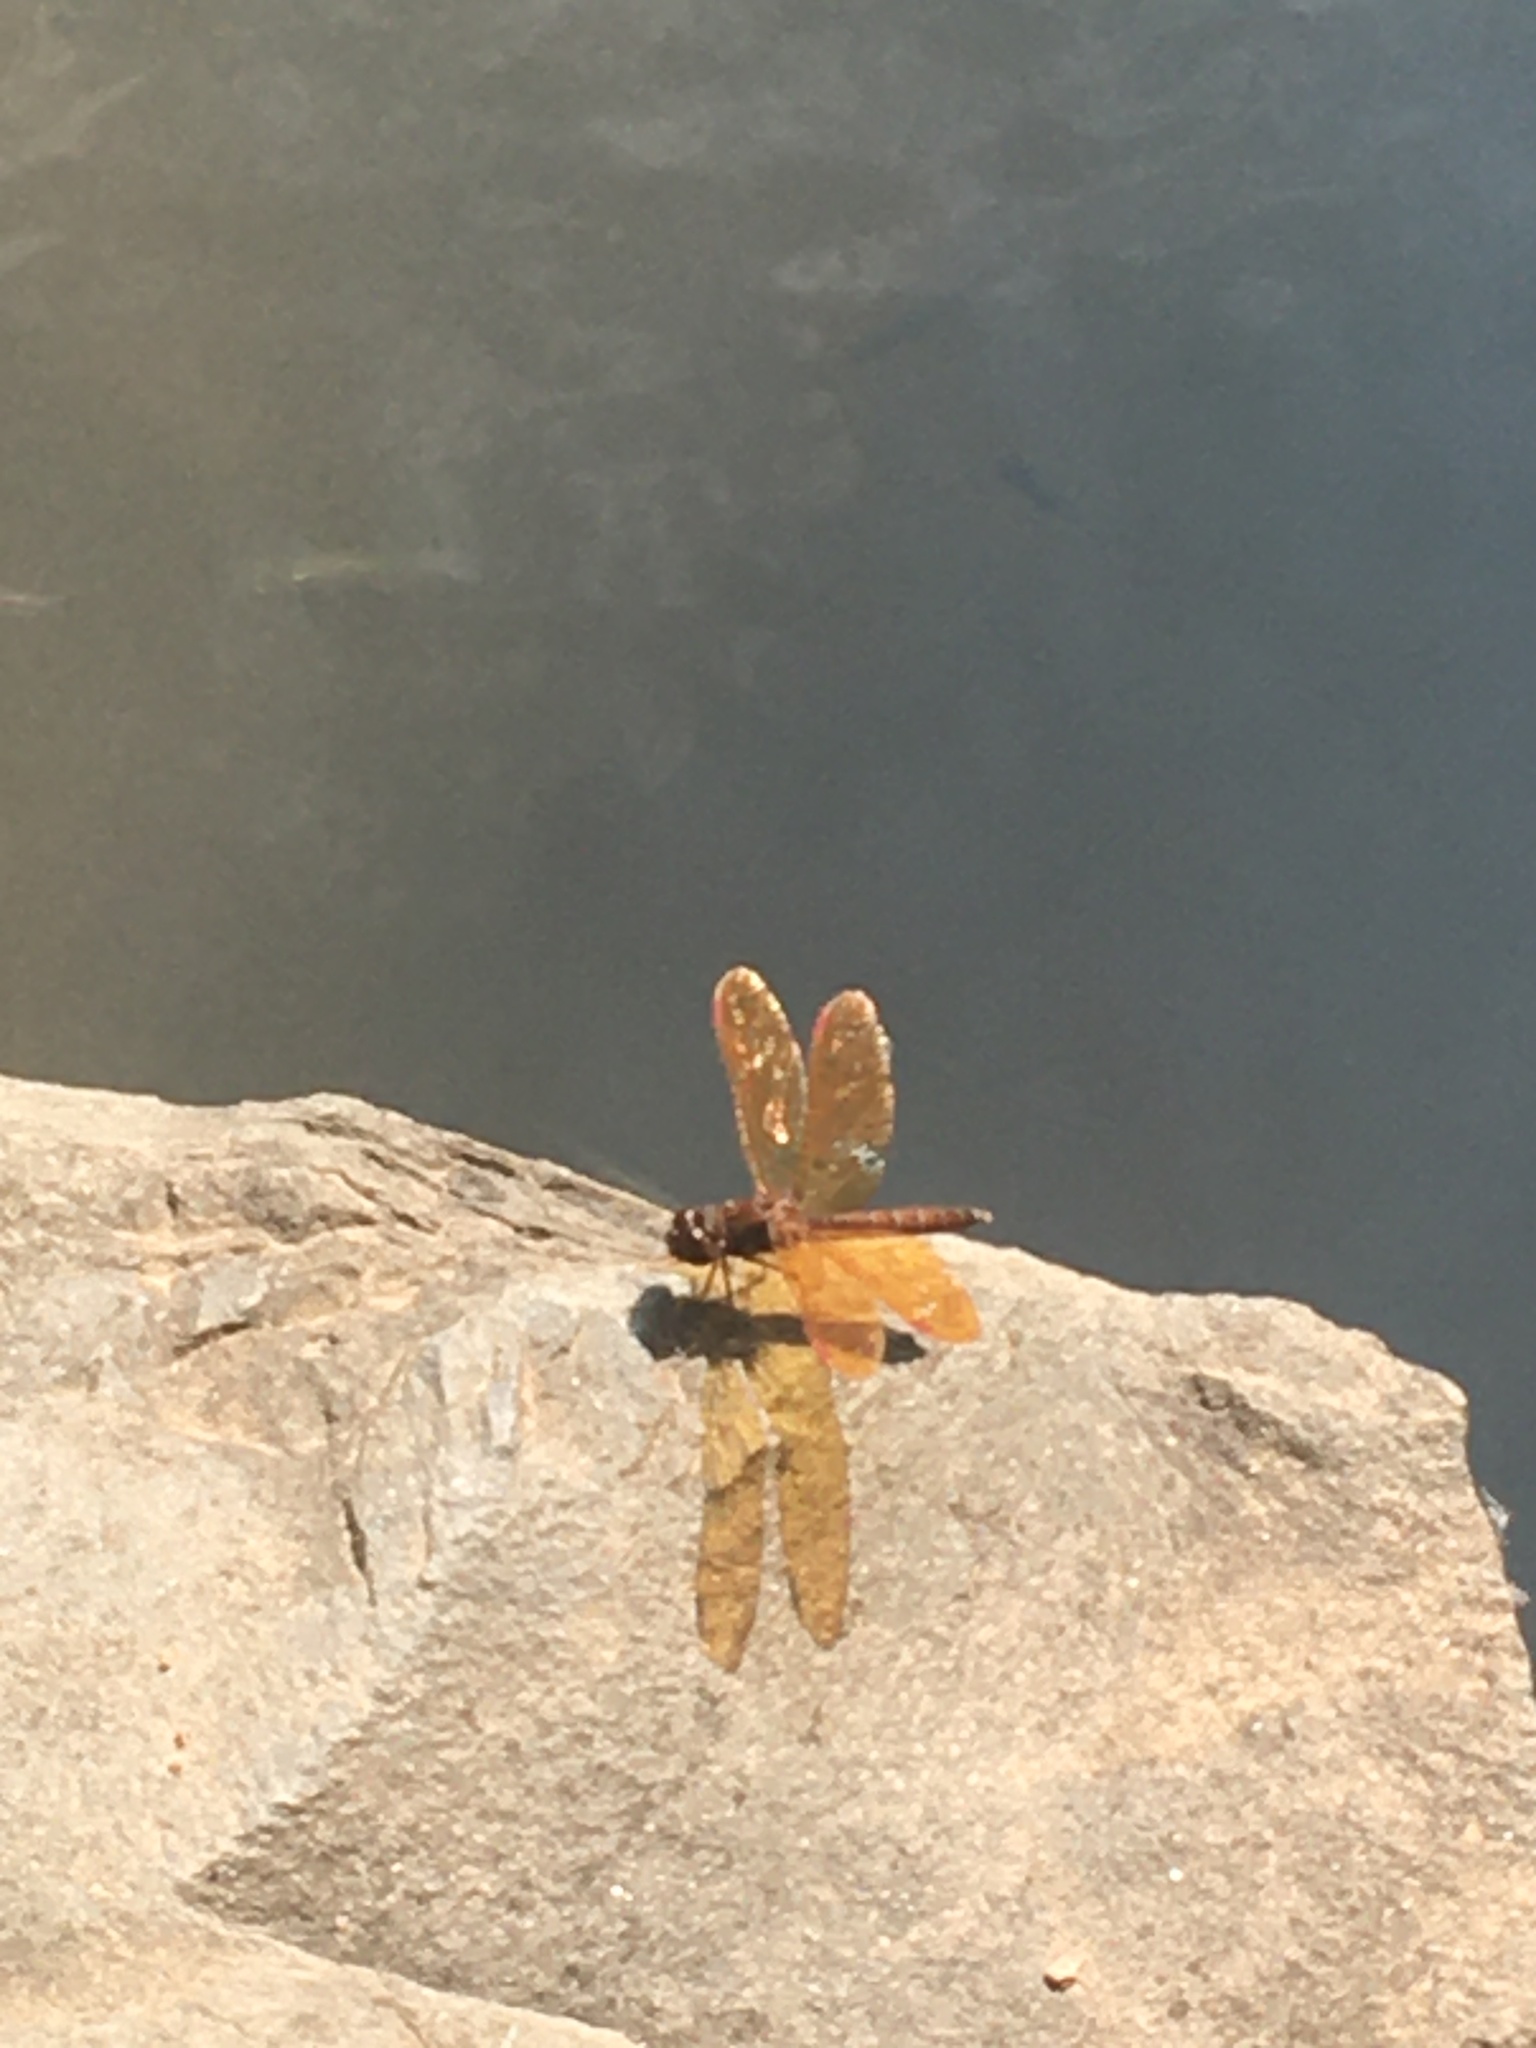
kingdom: Animalia
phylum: Arthropoda
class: Insecta
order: Odonata
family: Libellulidae
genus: Perithemis
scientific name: Perithemis tenera
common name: Eastern amberwing
